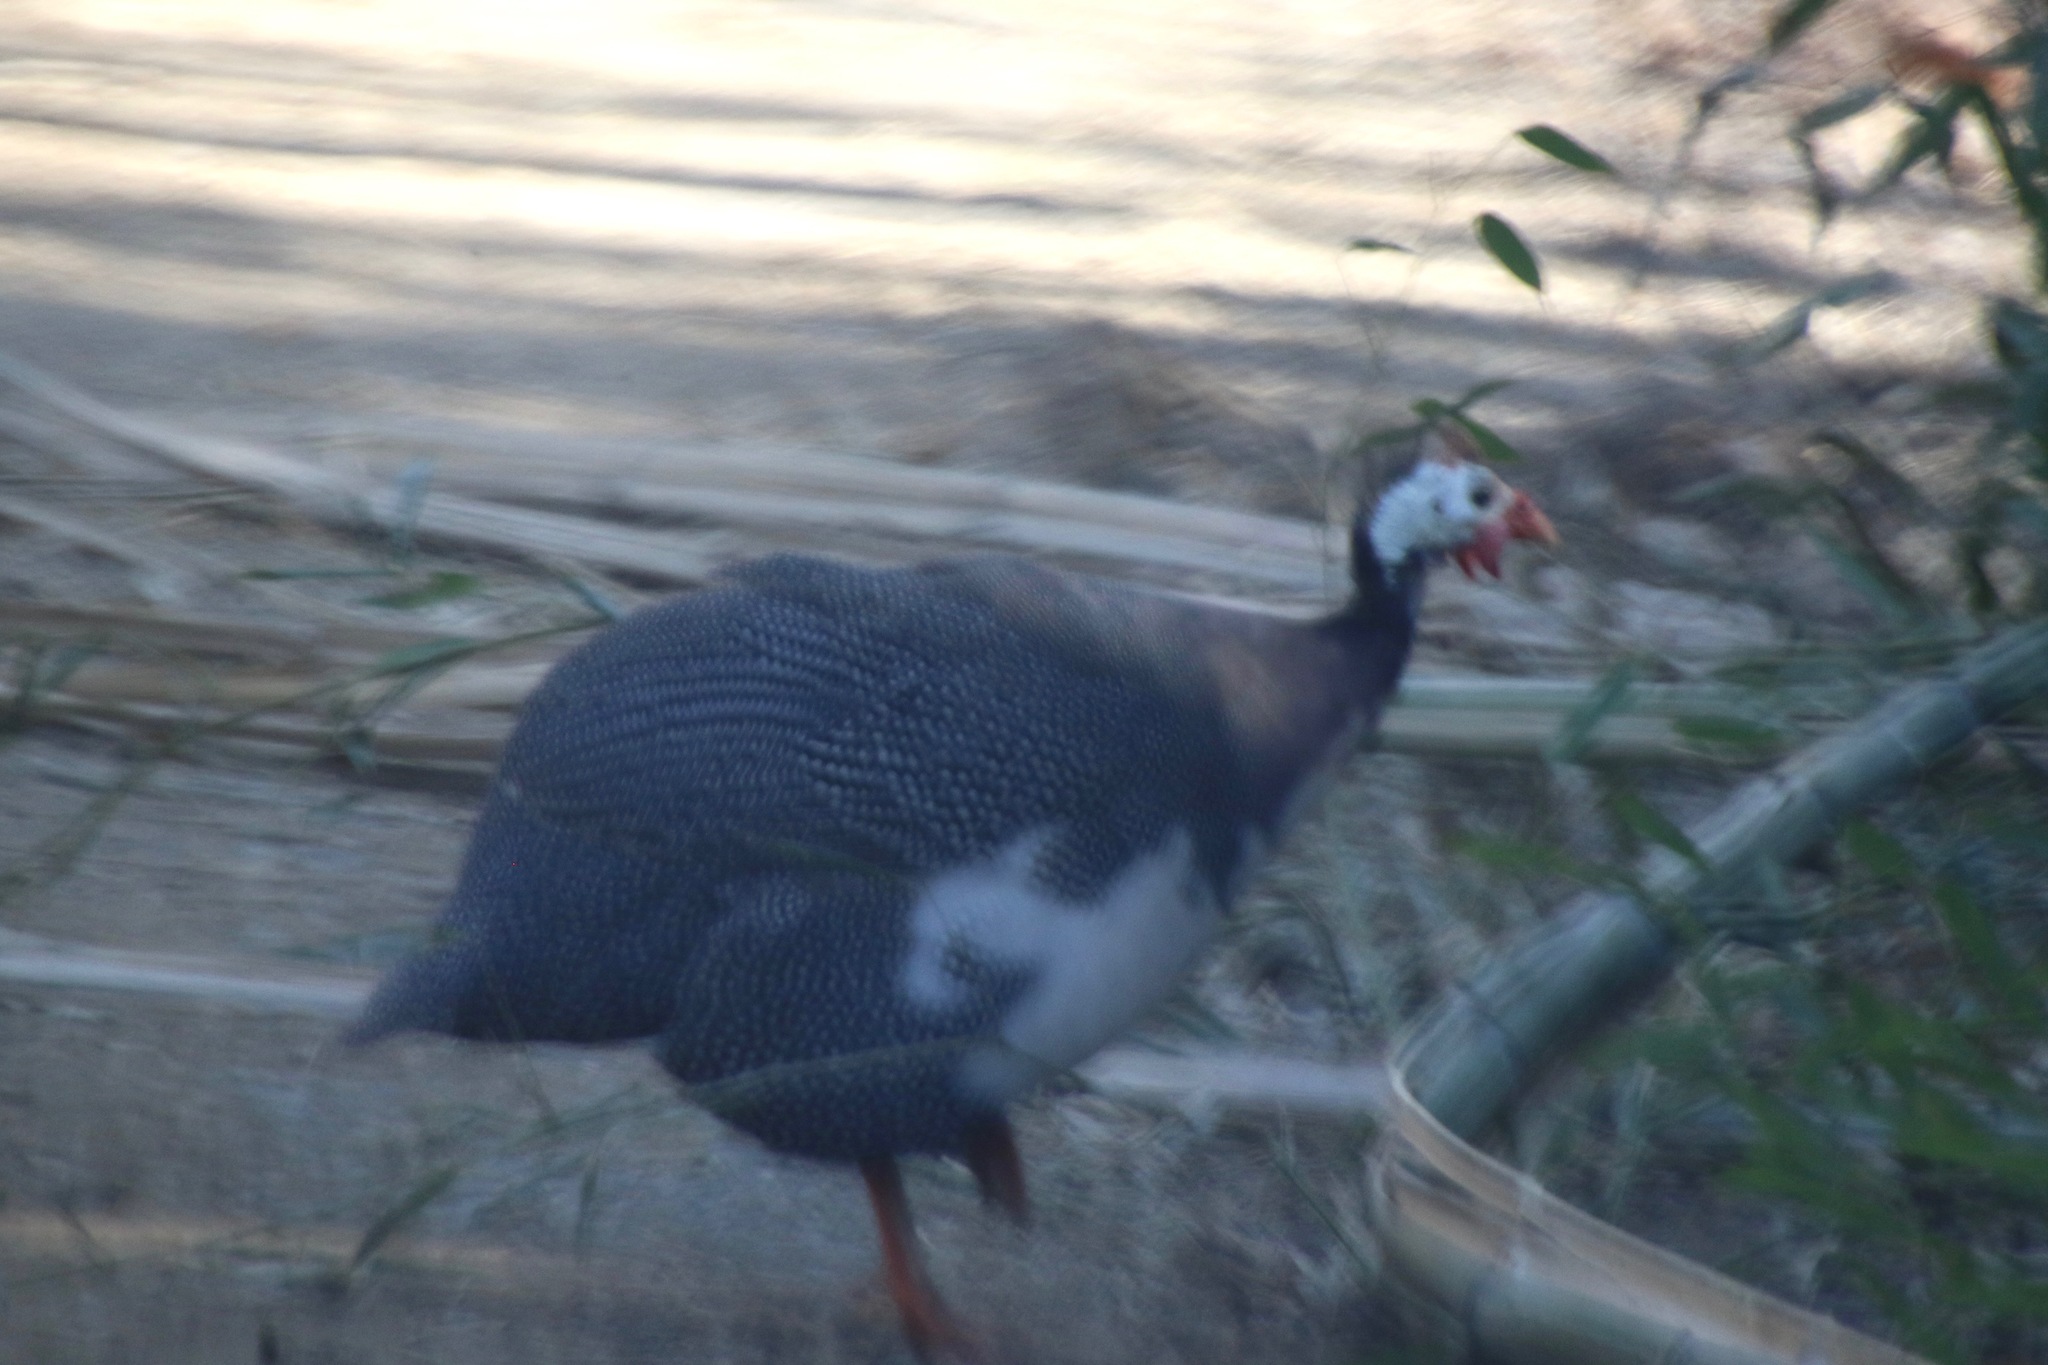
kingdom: Animalia
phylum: Chordata
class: Aves
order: Galliformes
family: Numididae
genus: Numida
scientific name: Numida meleagris
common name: Helmeted guineafowl
